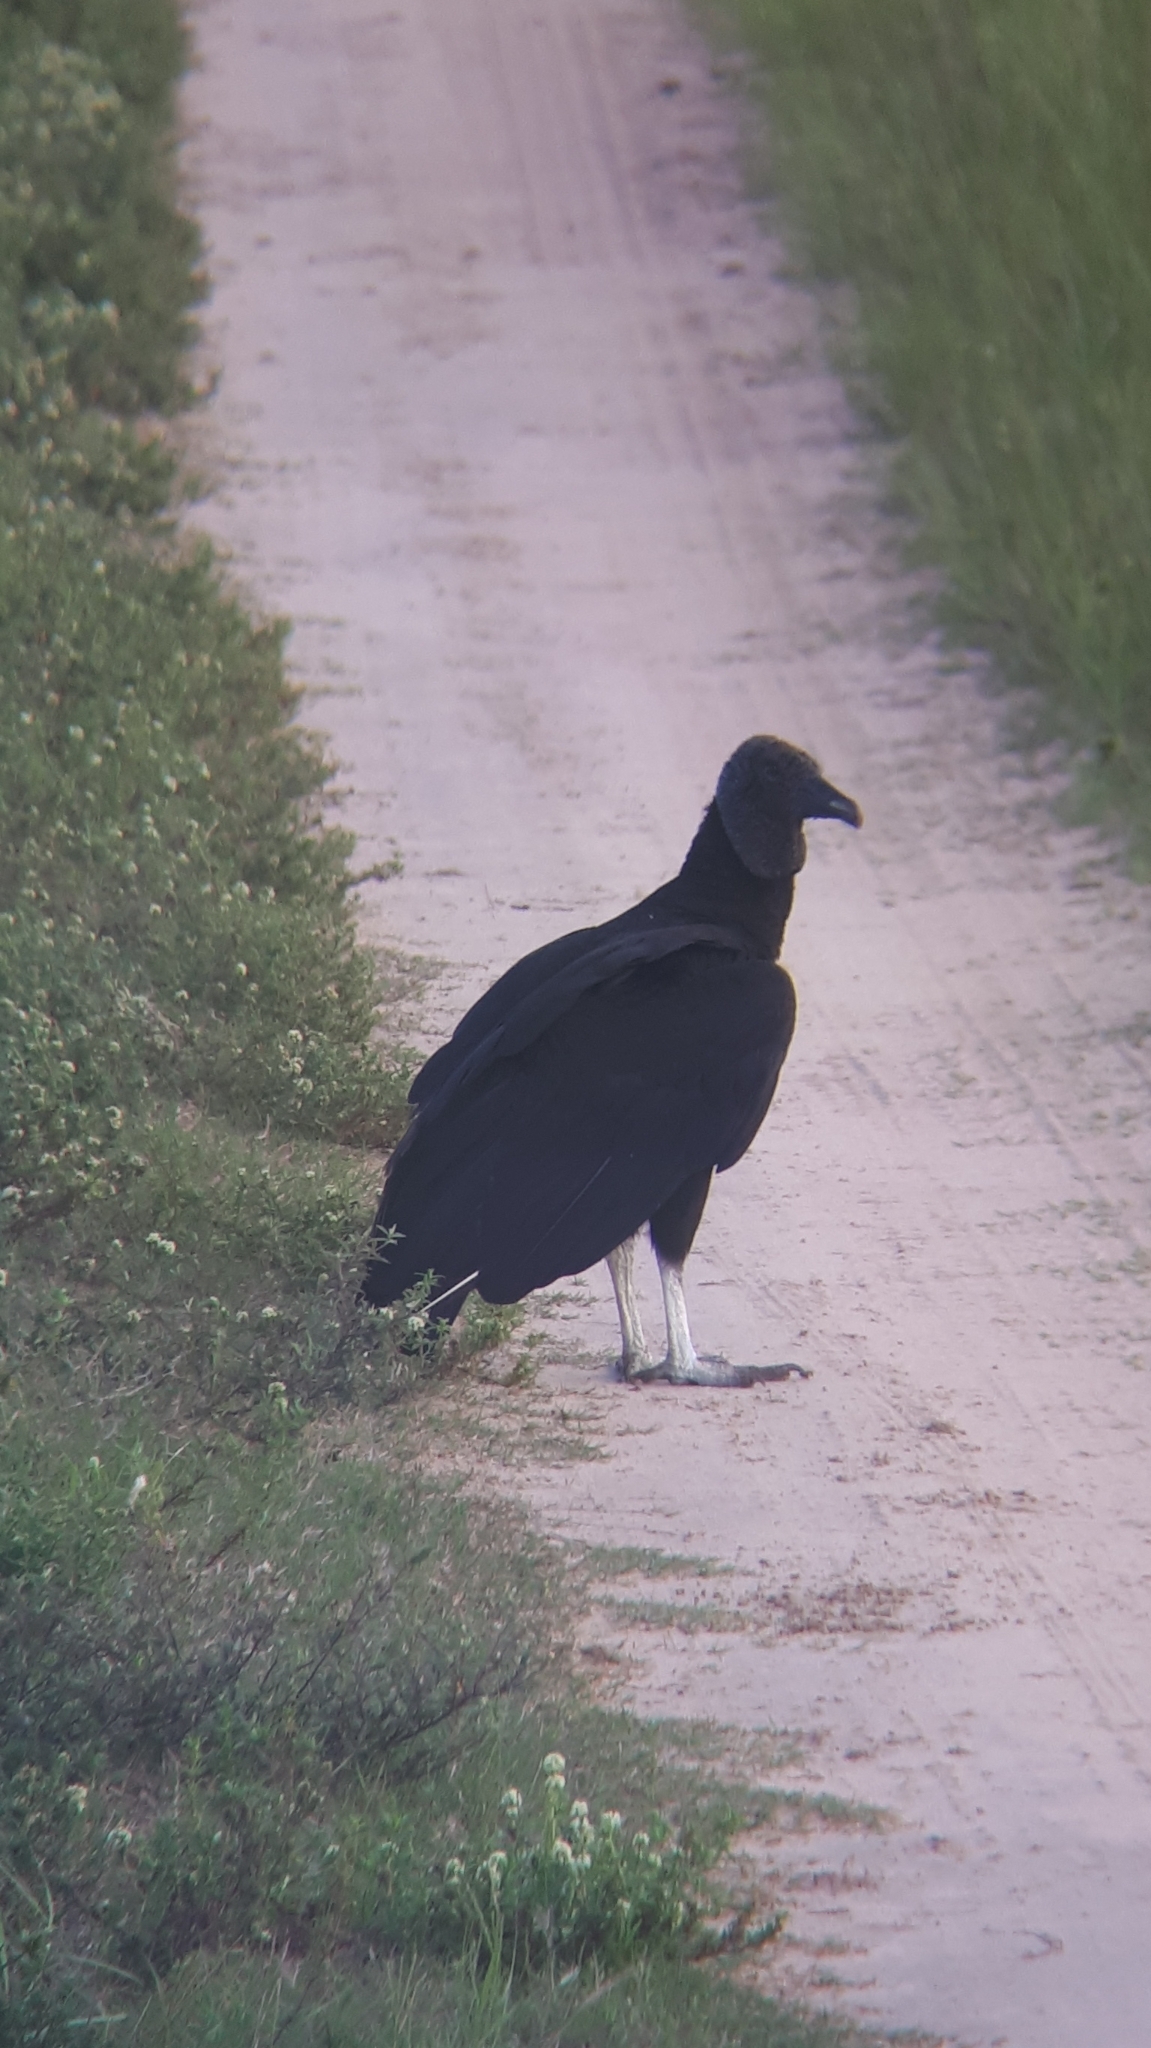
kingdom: Animalia
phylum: Chordata
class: Aves
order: Accipitriformes
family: Cathartidae
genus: Coragyps
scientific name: Coragyps atratus
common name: Black vulture
